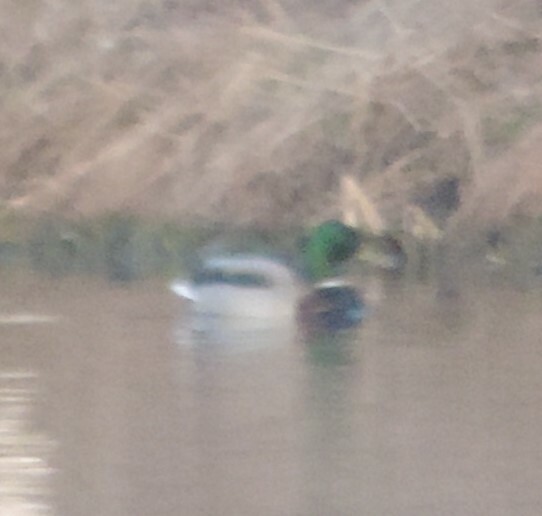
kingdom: Animalia
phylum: Chordata
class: Aves
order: Anseriformes
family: Anatidae
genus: Anas
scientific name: Anas platyrhynchos
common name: Mallard
